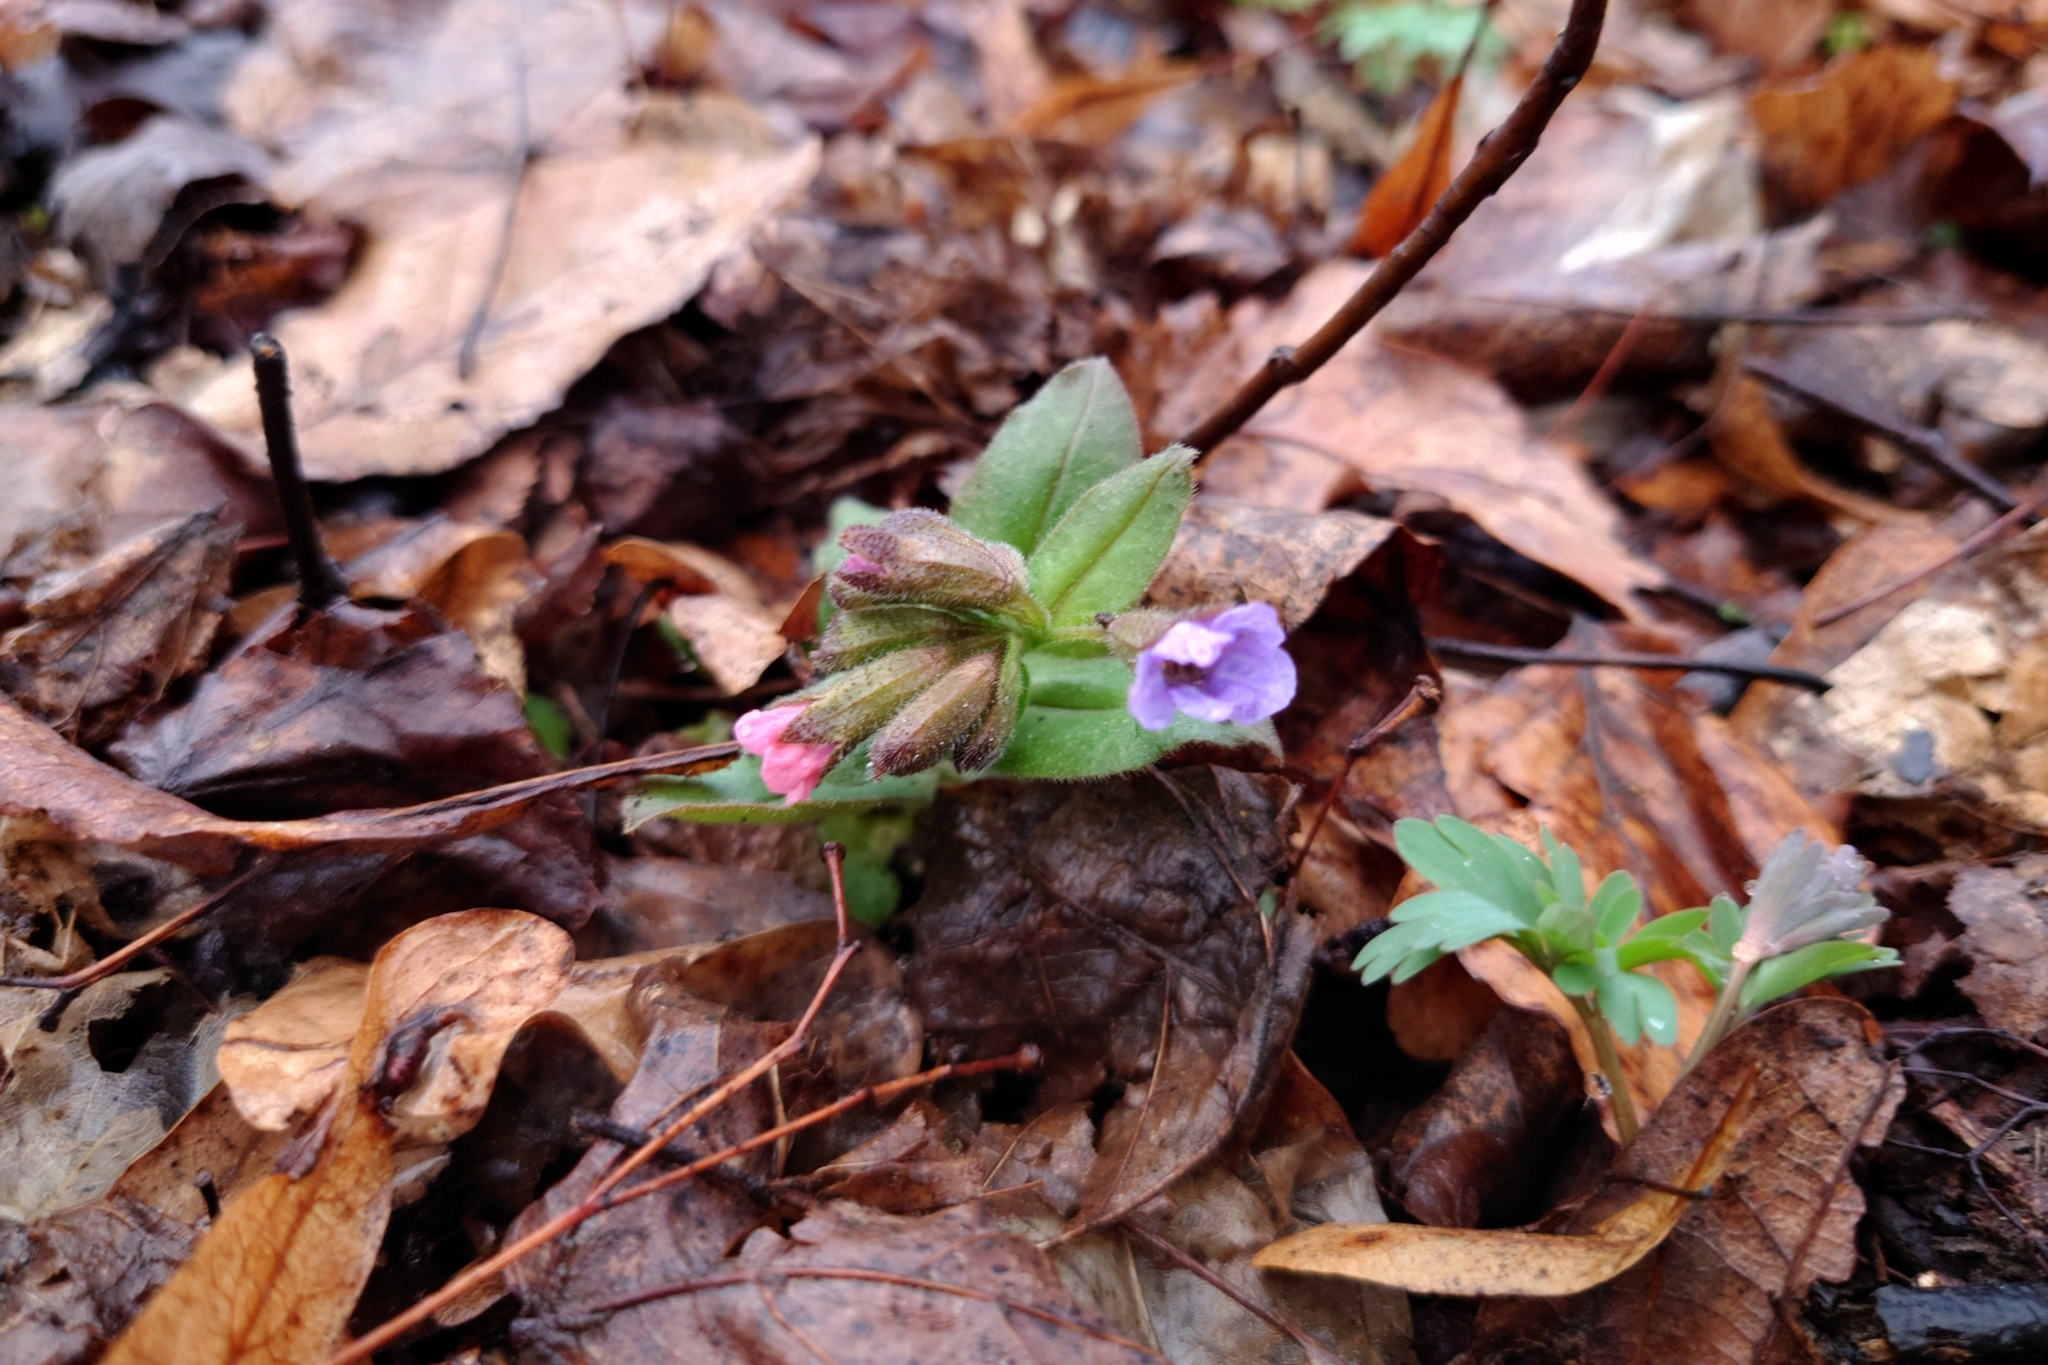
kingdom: Plantae
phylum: Tracheophyta
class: Magnoliopsida
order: Boraginales
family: Boraginaceae
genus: Pulmonaria
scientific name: Pulmonaria obscura
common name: Suffolk lungwort
